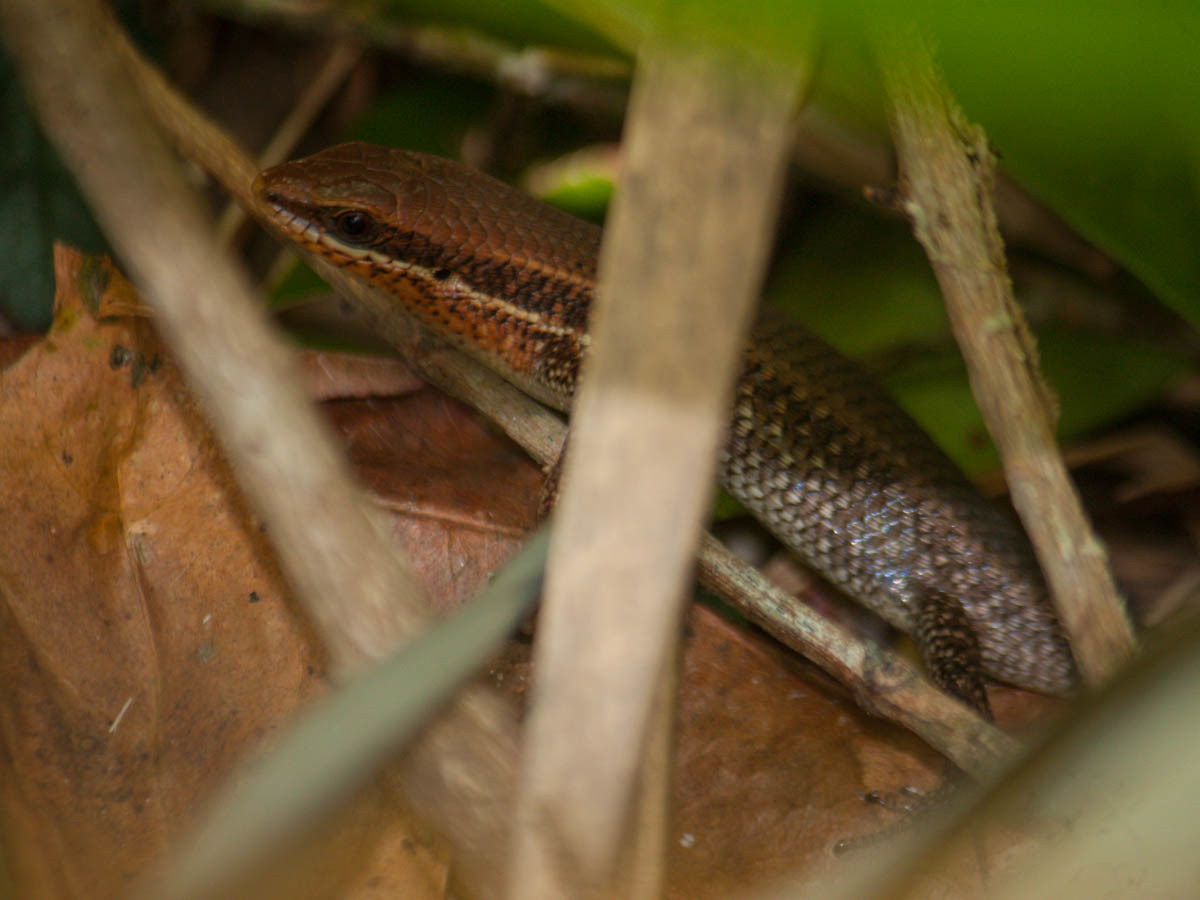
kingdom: Animalia
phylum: Chordata
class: Squamata
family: Scincidae
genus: Eutropis
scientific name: Eutropis macularia
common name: Bronze mabuya
